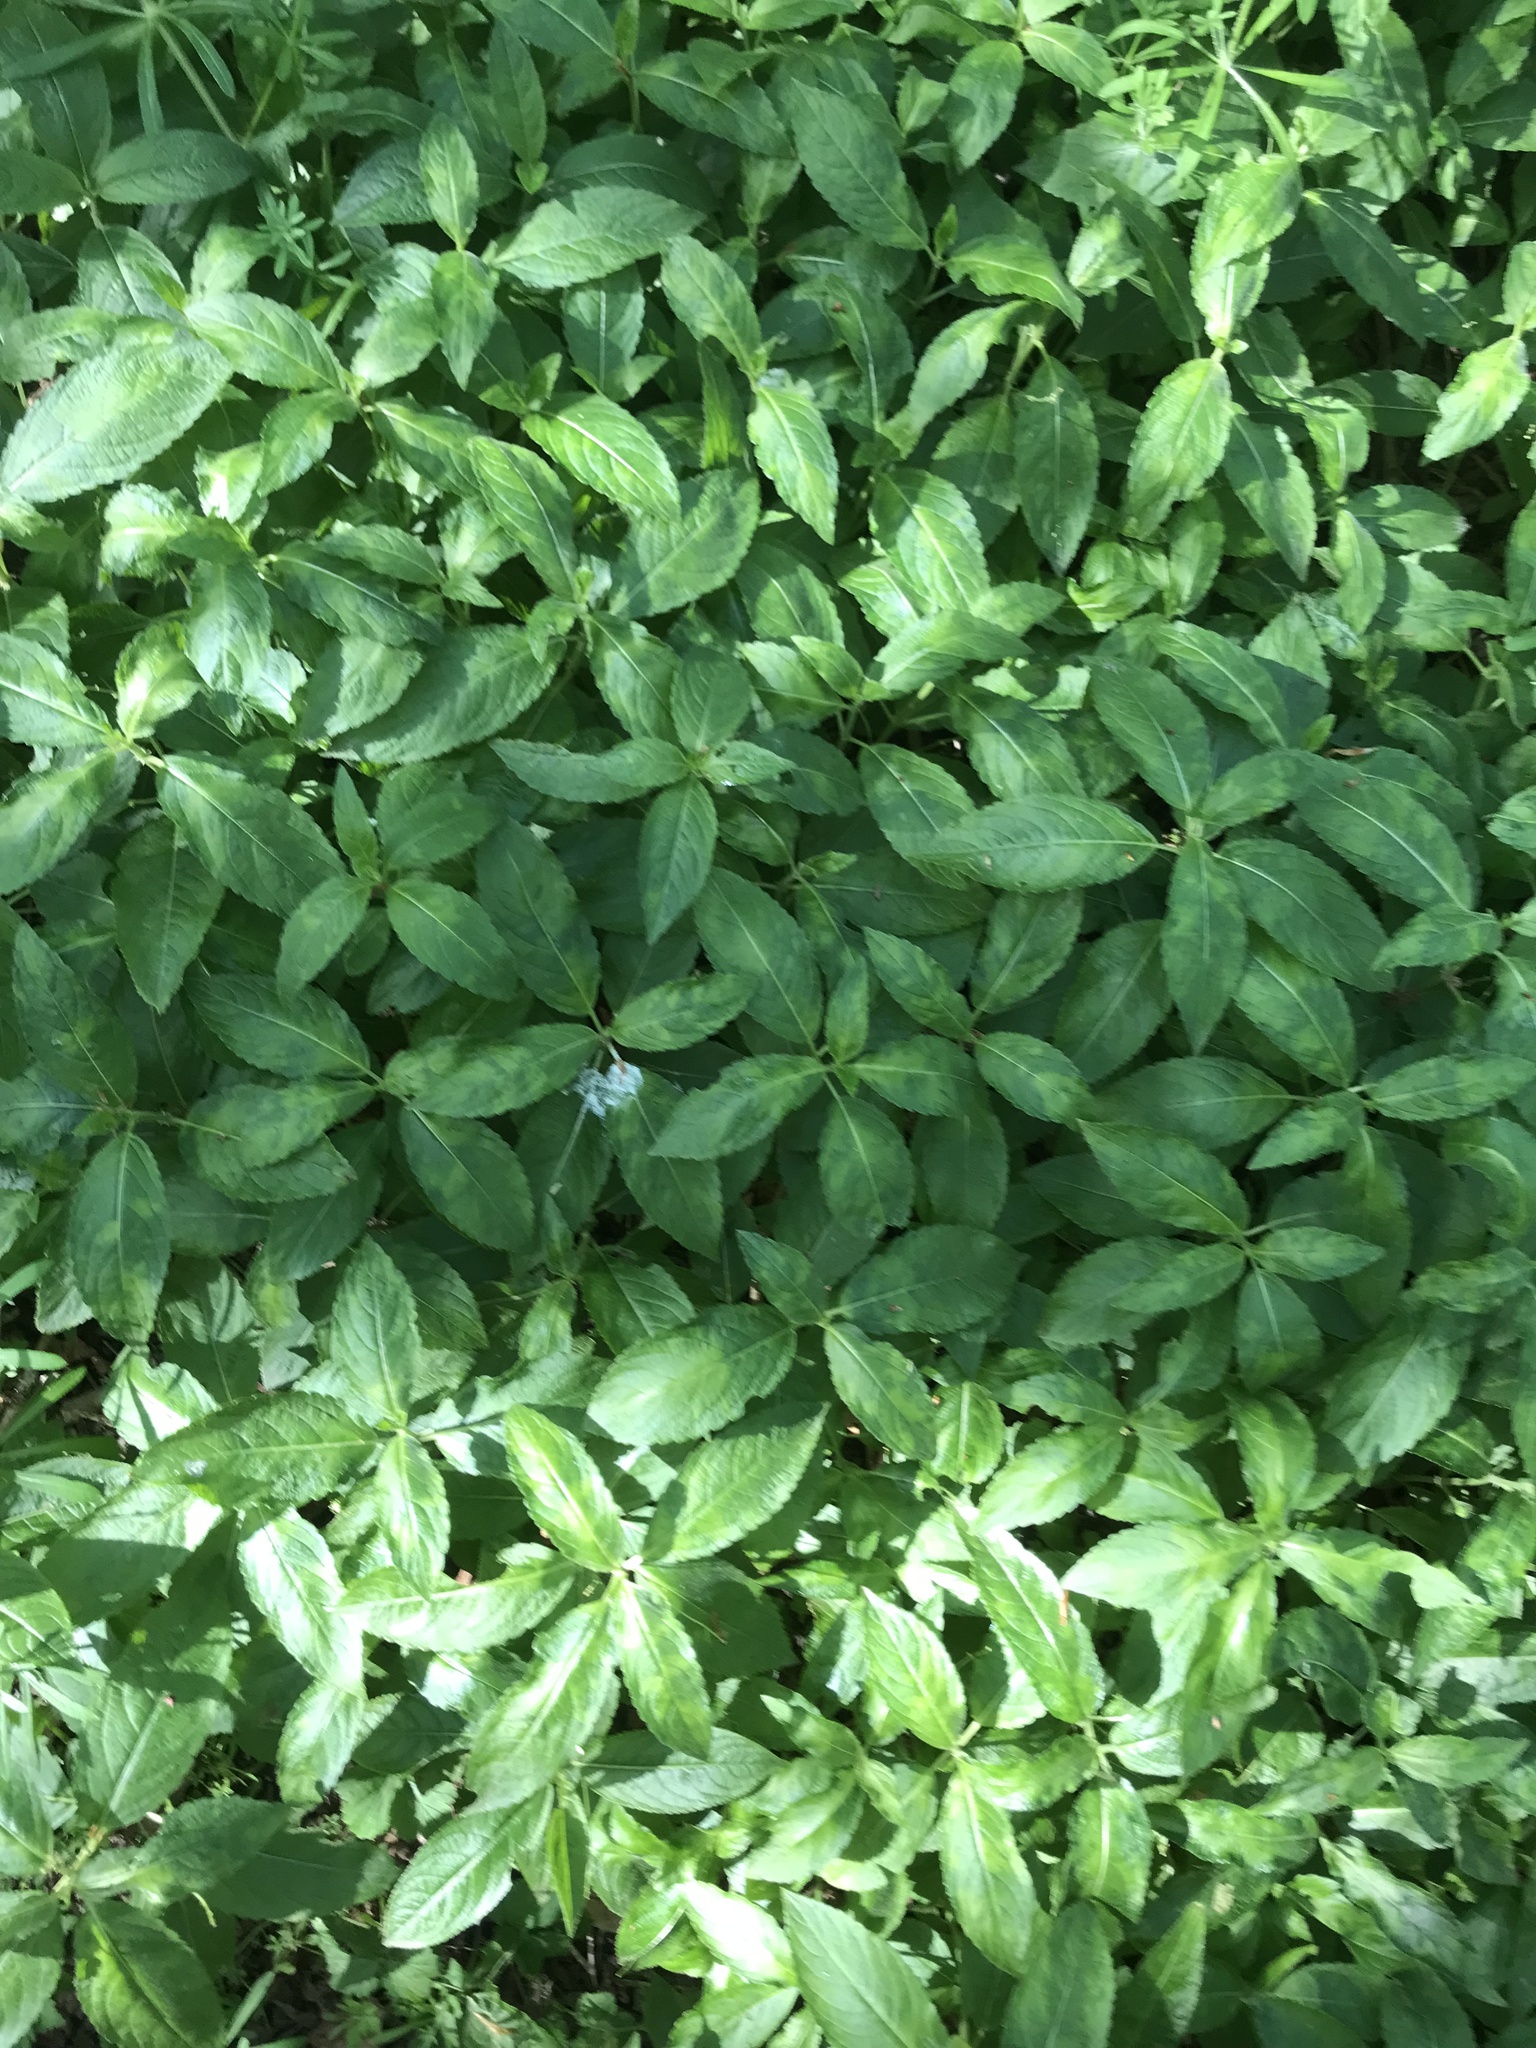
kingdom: Plantae
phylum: Tracheophyta
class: Magnoliopsida
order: Malpighiales
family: Euphorbiaceae
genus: Mercurialis
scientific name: Mercurialis perennis
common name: Dog mercury
